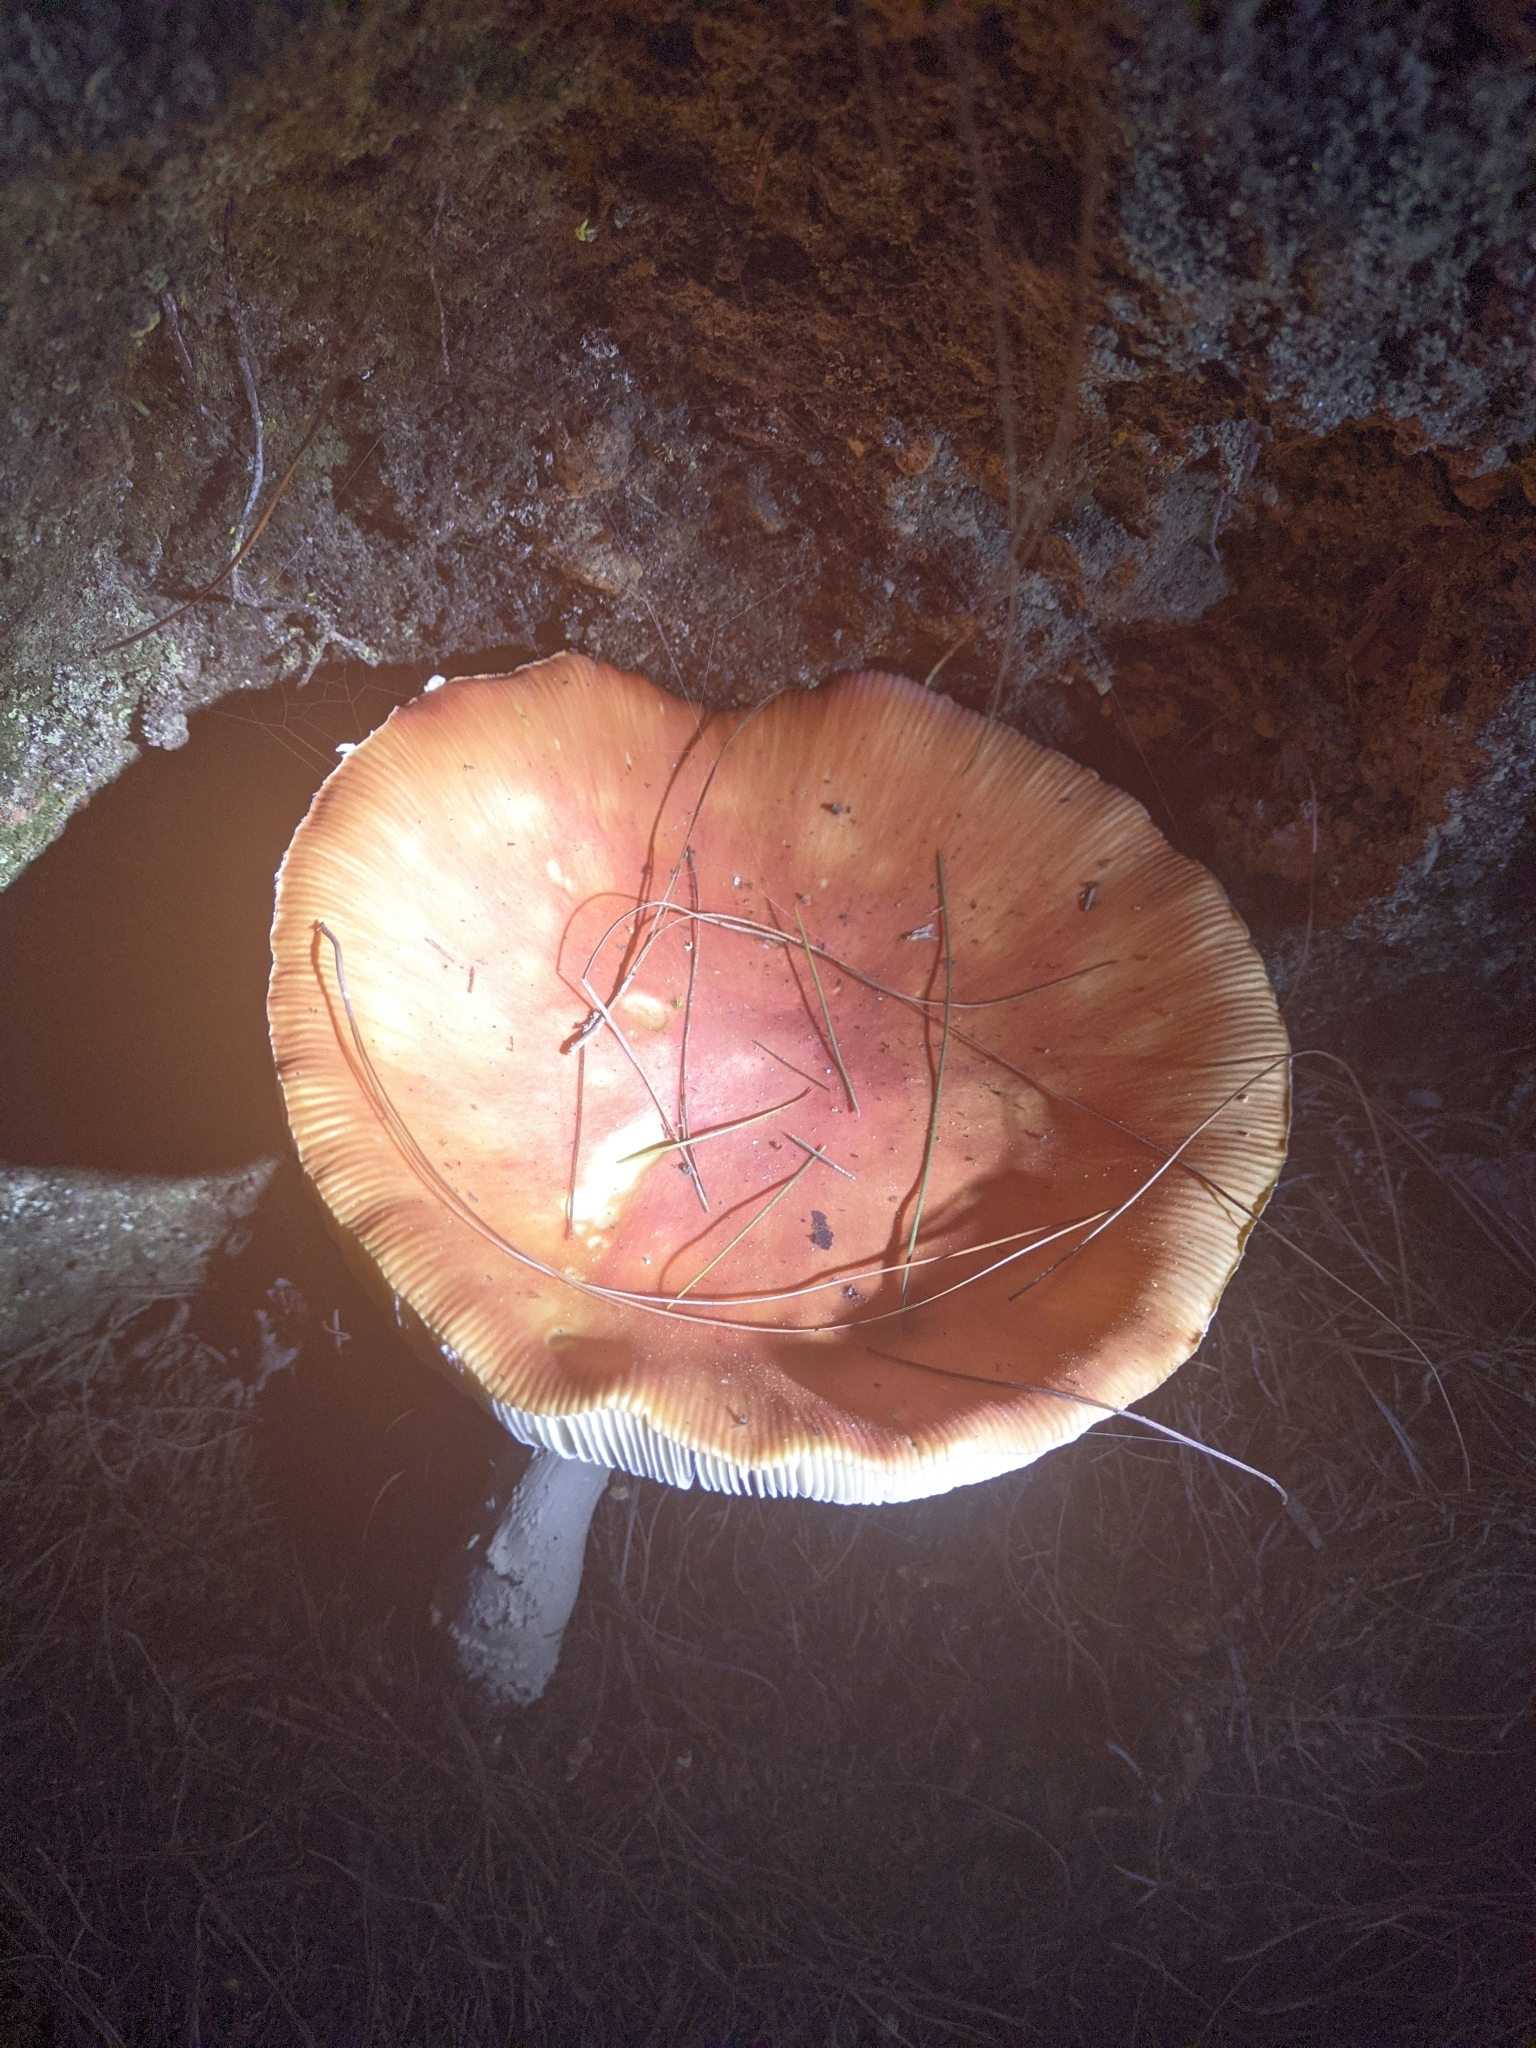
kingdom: Fungi
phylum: Basidiomycota
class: Agaricomycetes
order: Agaricales
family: Amanitaceae
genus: Amanita
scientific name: Amanita muscaria
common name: Fly agaric
